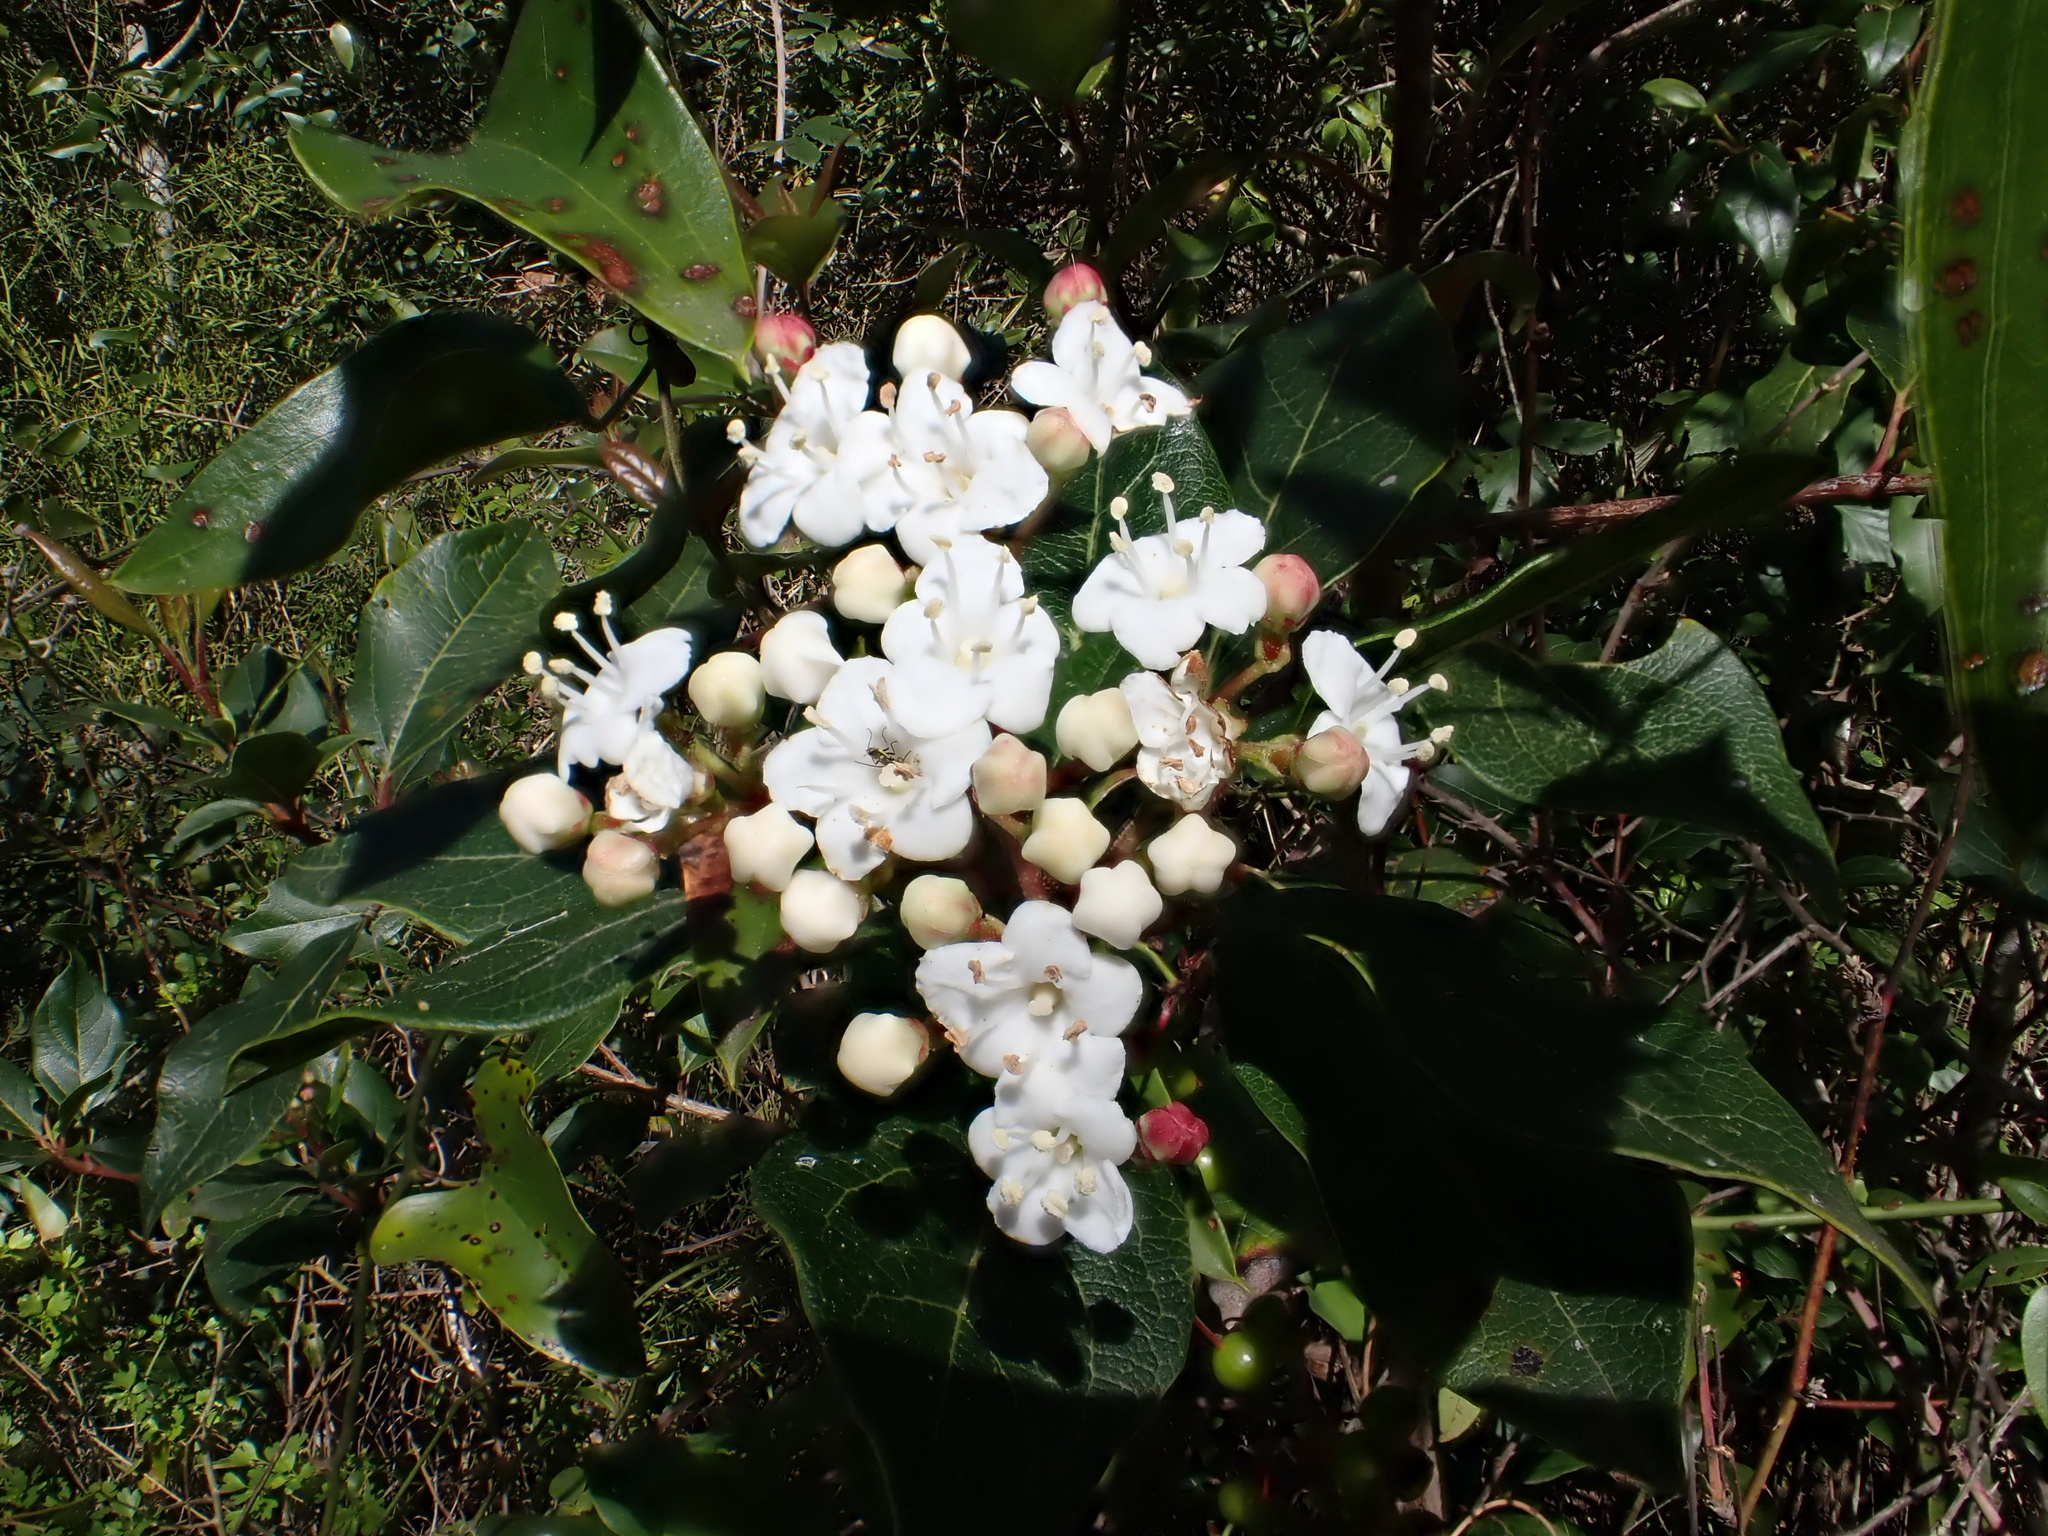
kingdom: Plantae
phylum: Tracheophyta
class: Magnoliopsida
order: Dipsacales
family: Viburnaceae
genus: Viburnum
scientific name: Viburnum tinus
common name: Laurustinus
